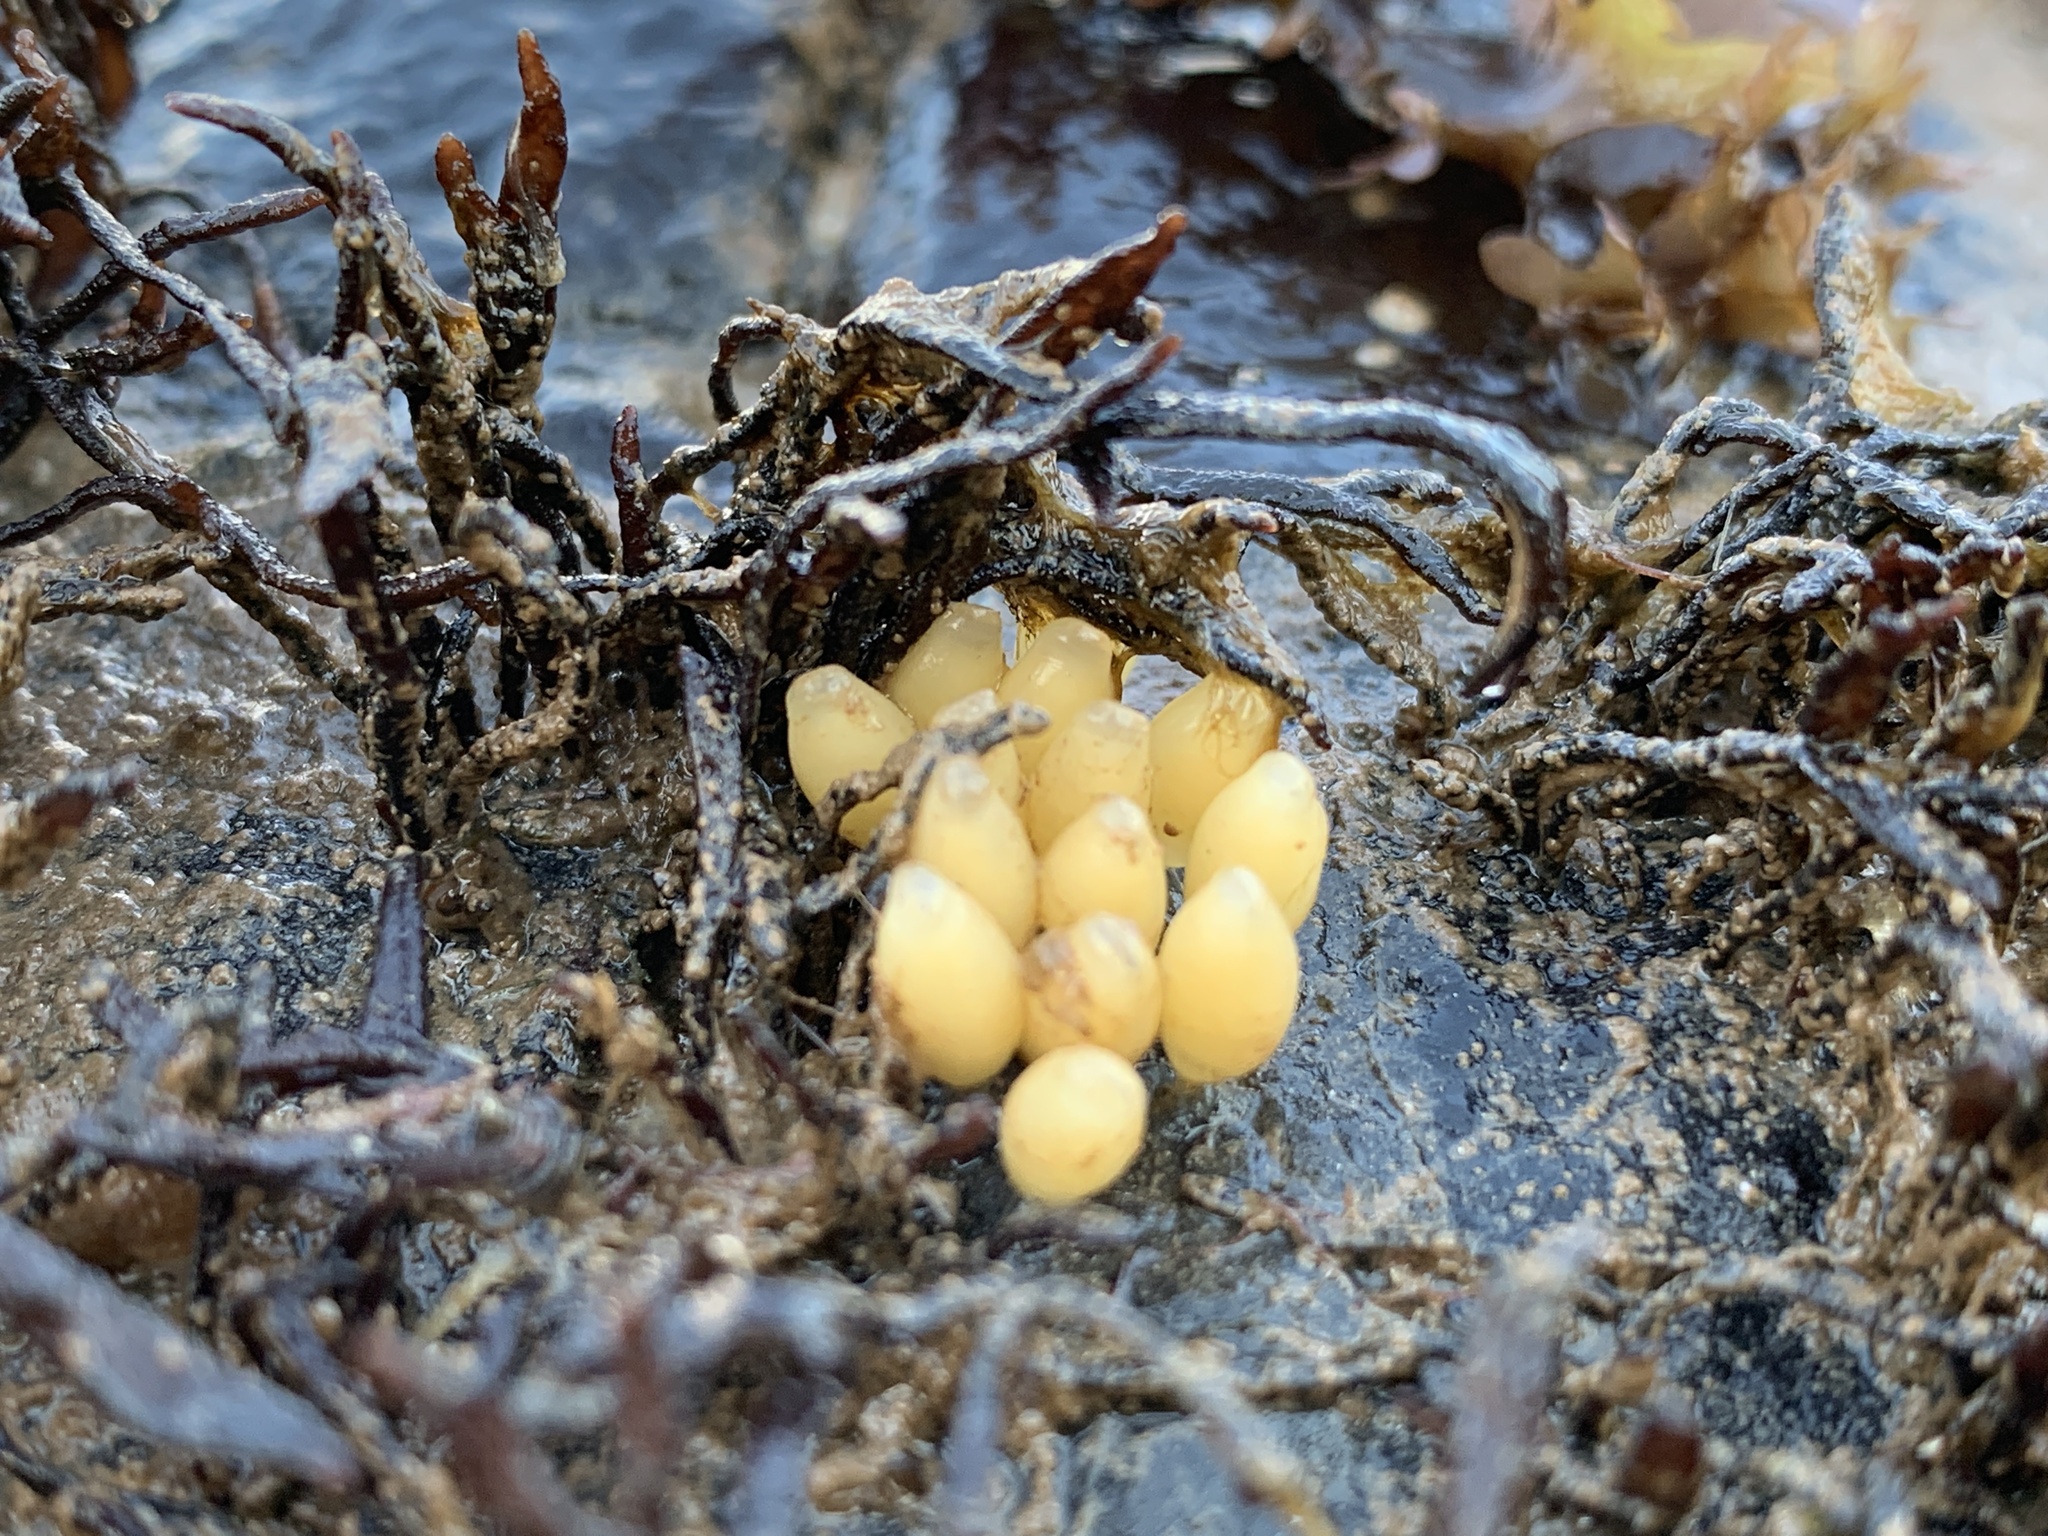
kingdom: Animalia
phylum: Mollusca
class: Gastropoda
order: Neogastropoda
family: Muricidae
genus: Nucella
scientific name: Nucella lapillus
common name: Dog whelk
